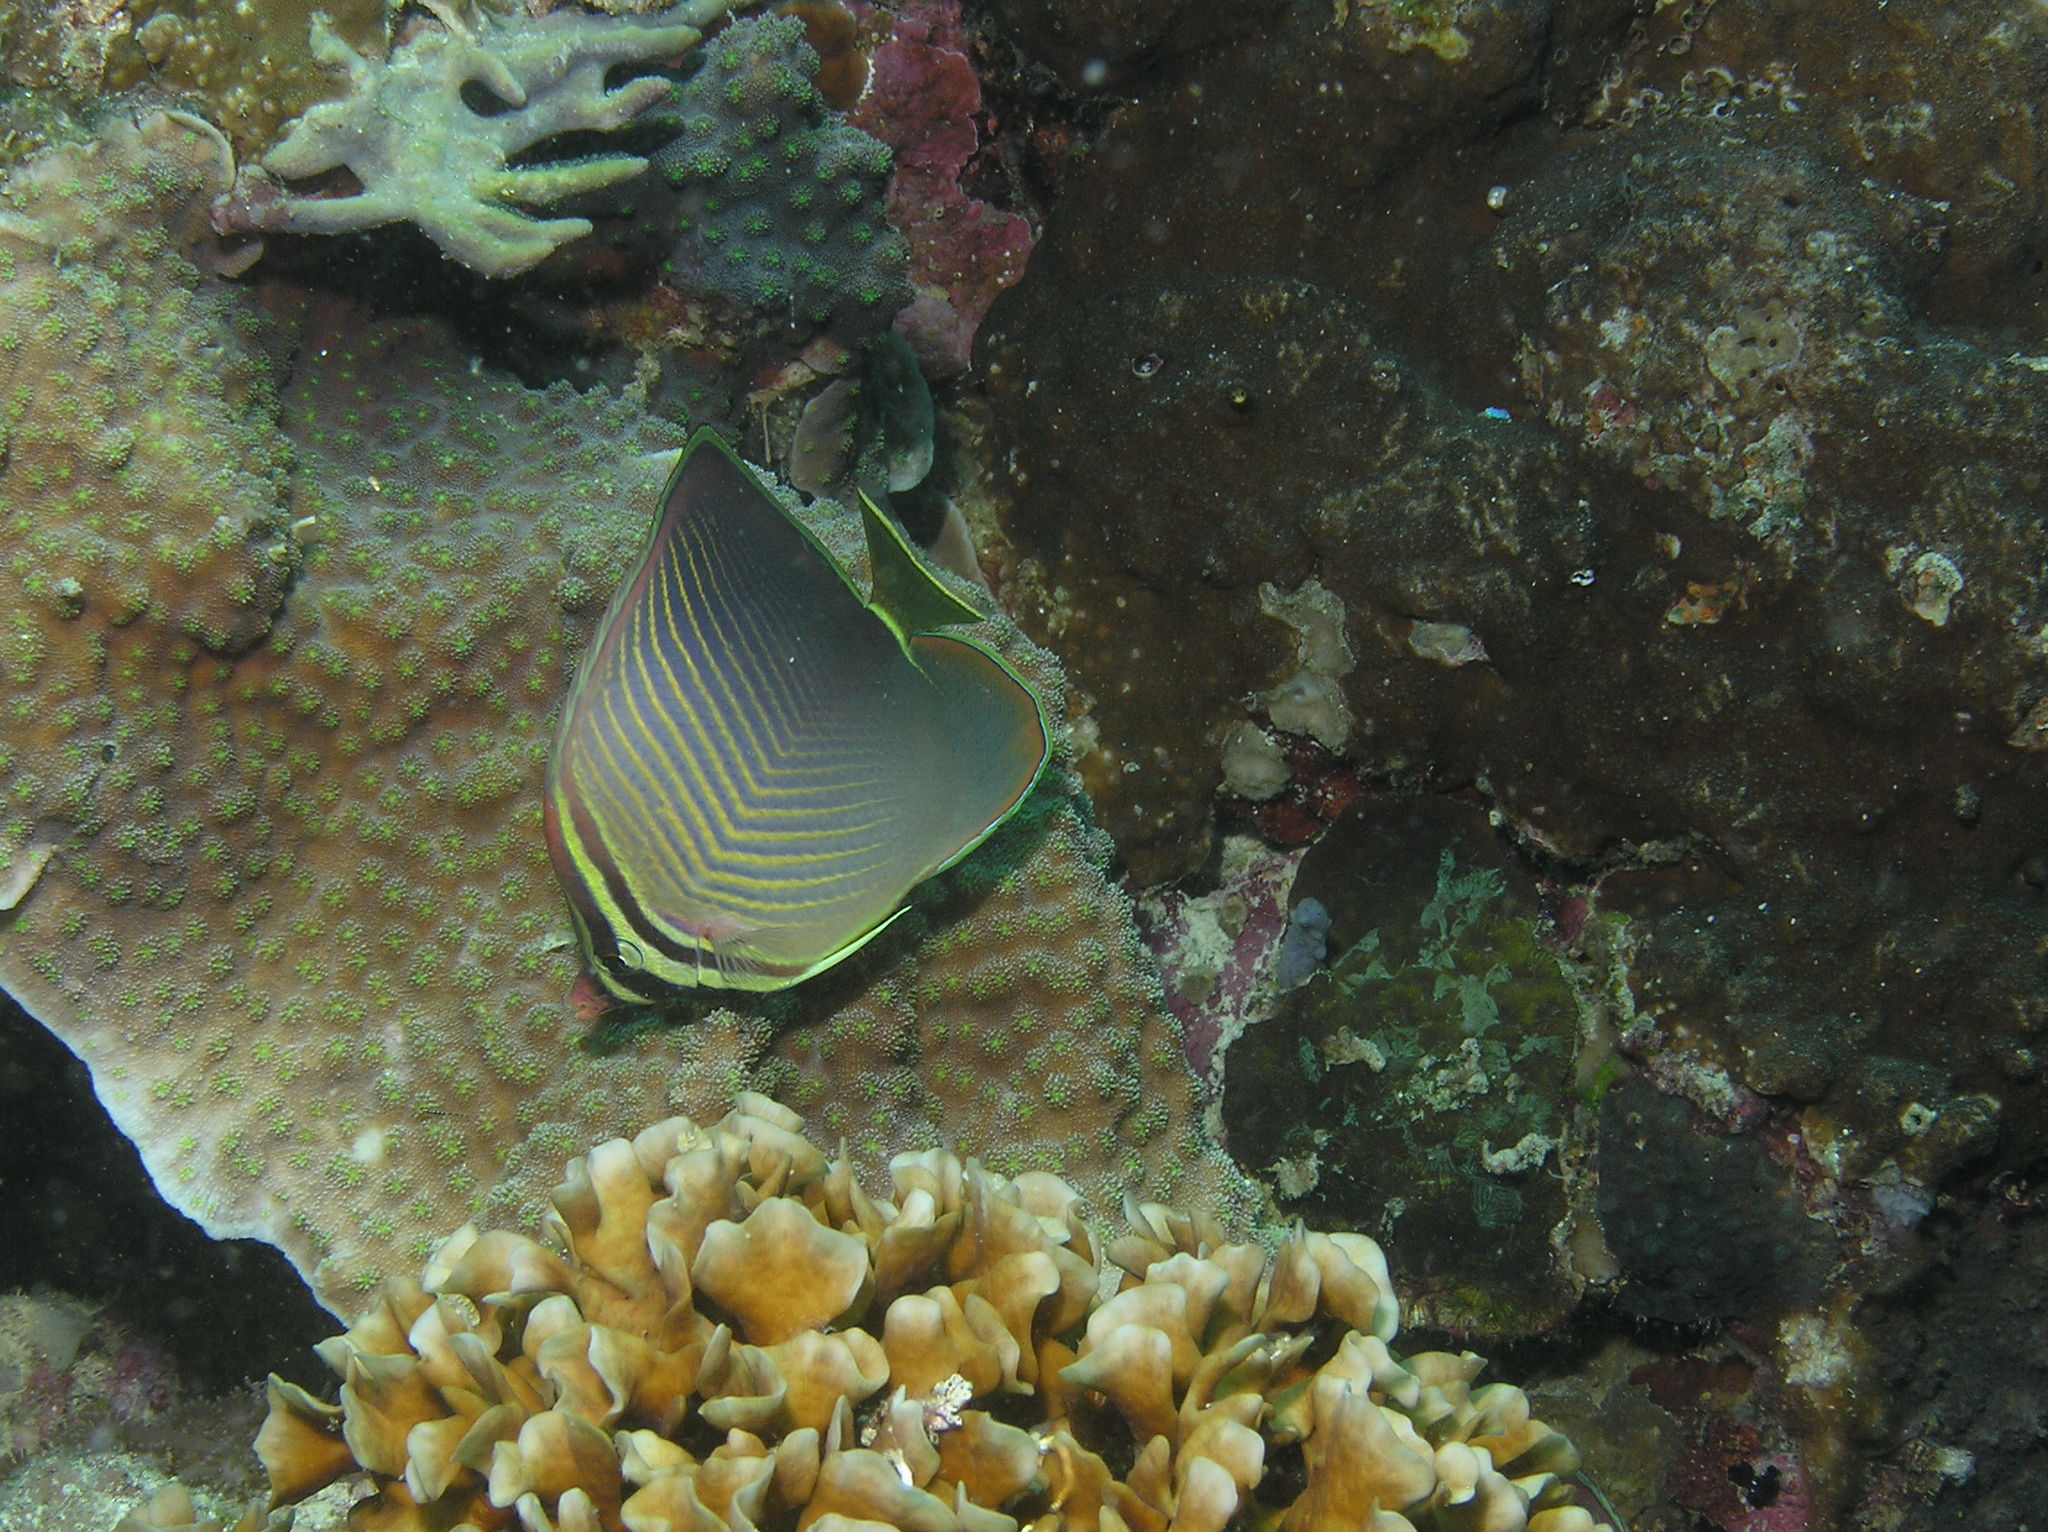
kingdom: Animalia
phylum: Chordata
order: Perciformes
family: Chaetodontidae
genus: Chaetodon
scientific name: Chaetodon baronessa
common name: Triangular butterflyfish
